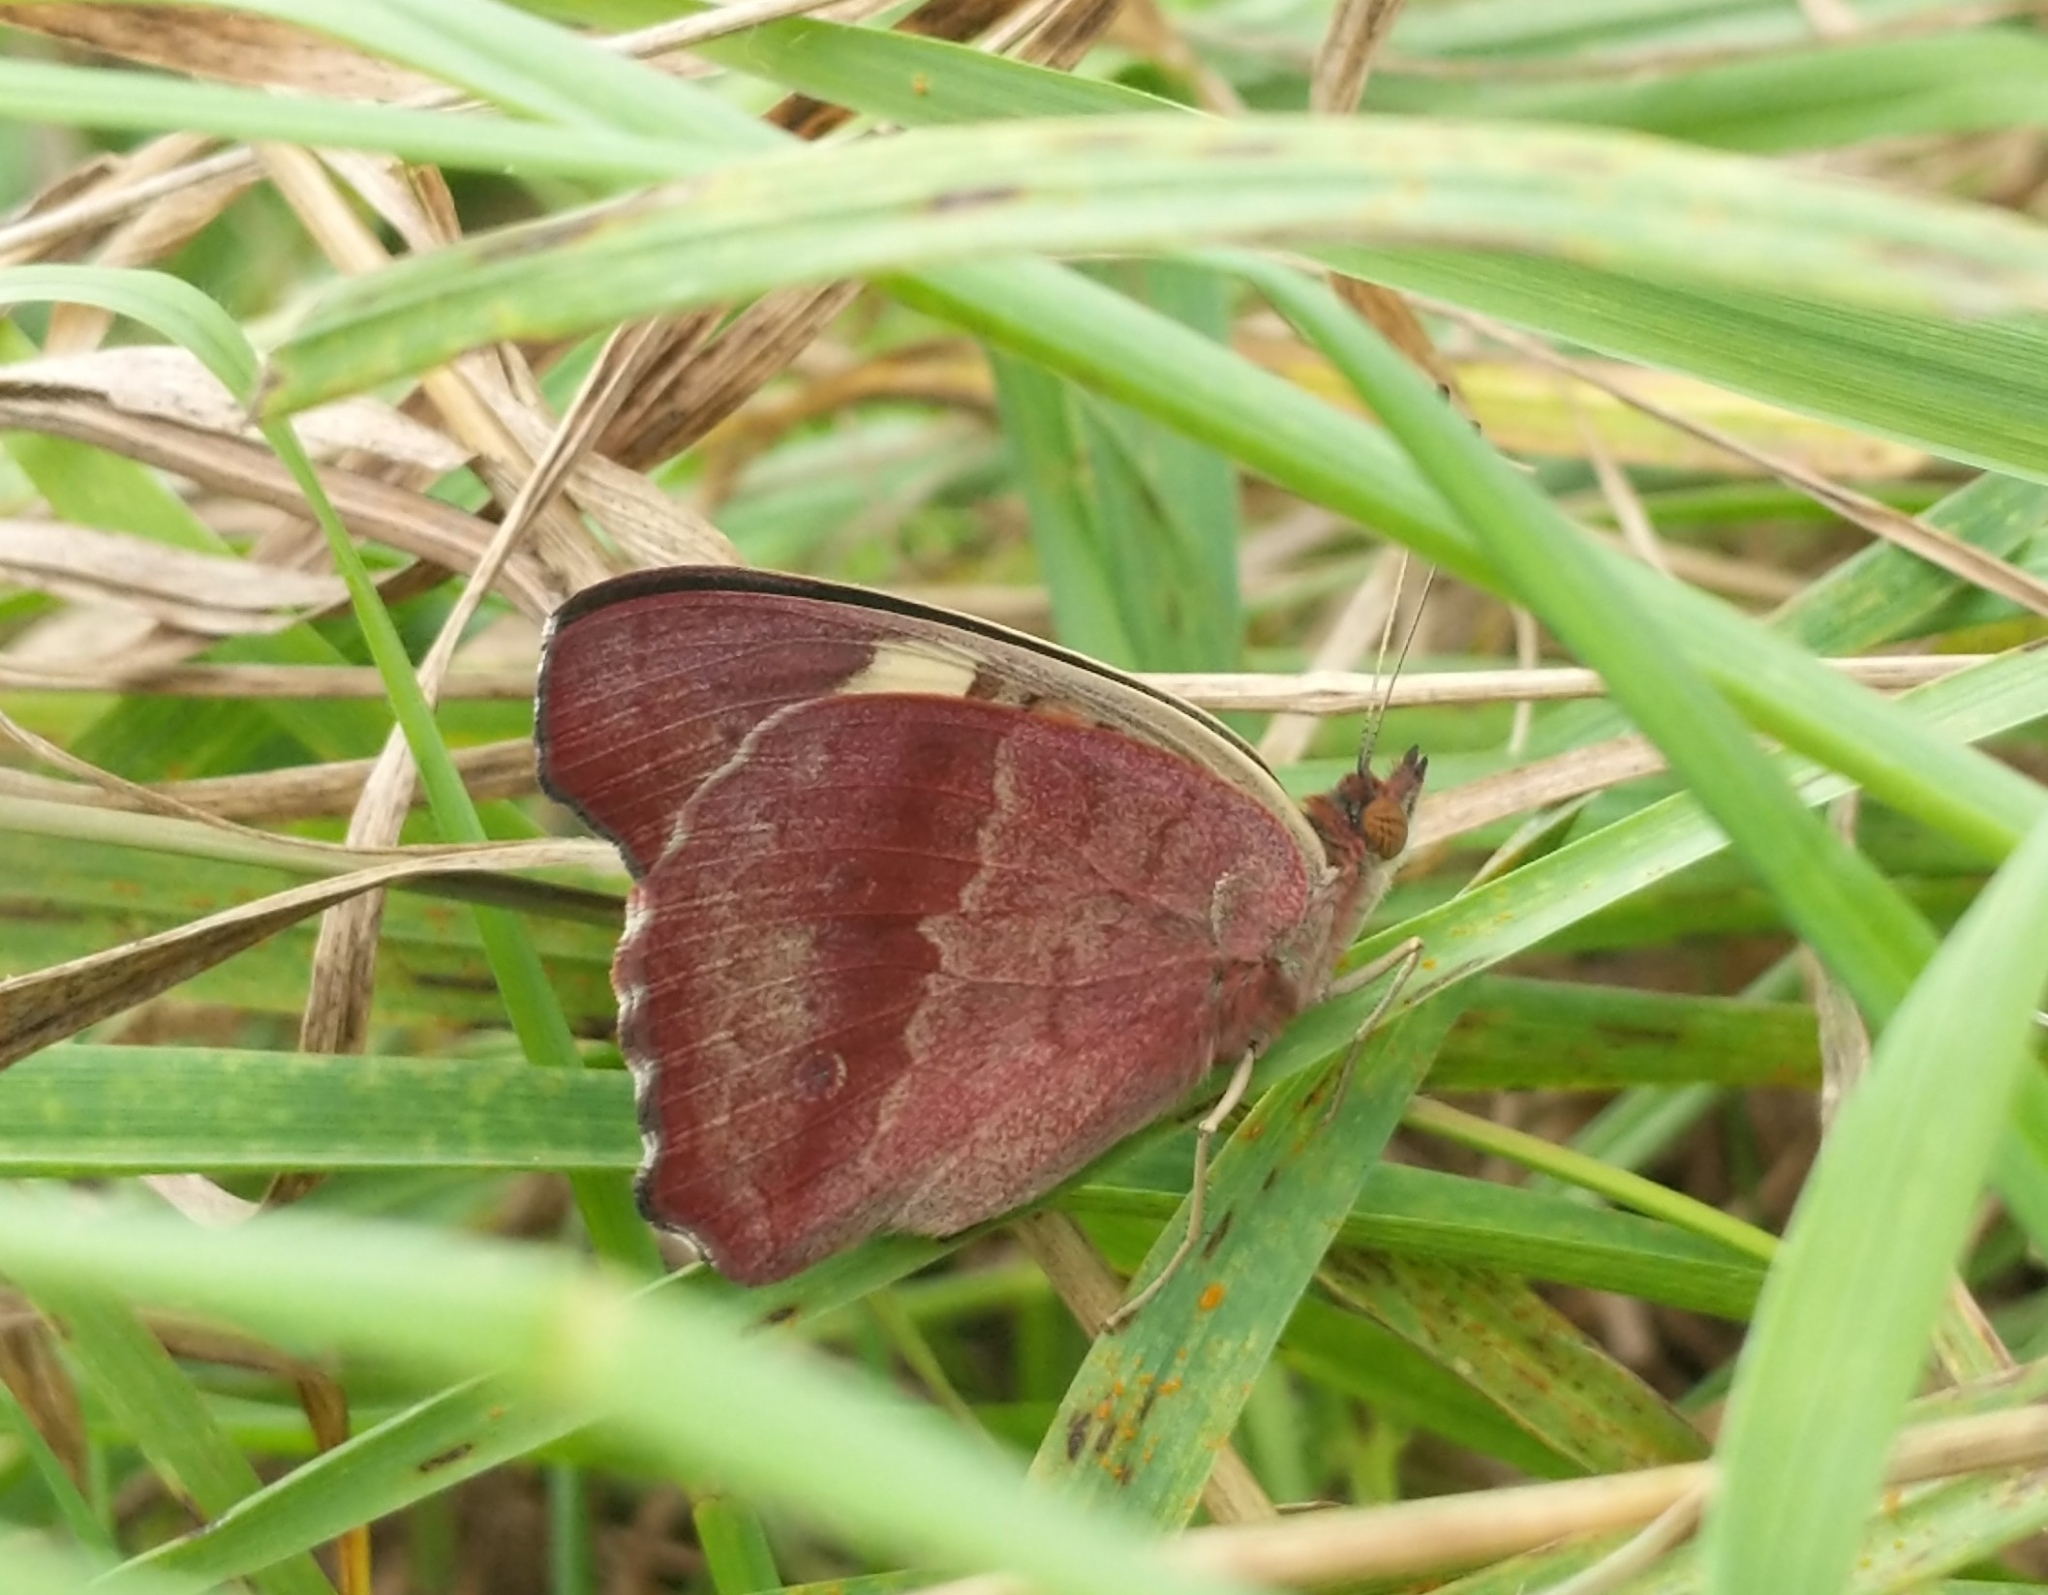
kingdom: Animalia
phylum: Arthropoda
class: Insecta
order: Lepidoptera
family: Nymphalidae
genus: Junonia
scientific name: Junonia coenia
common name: Common buckeye
